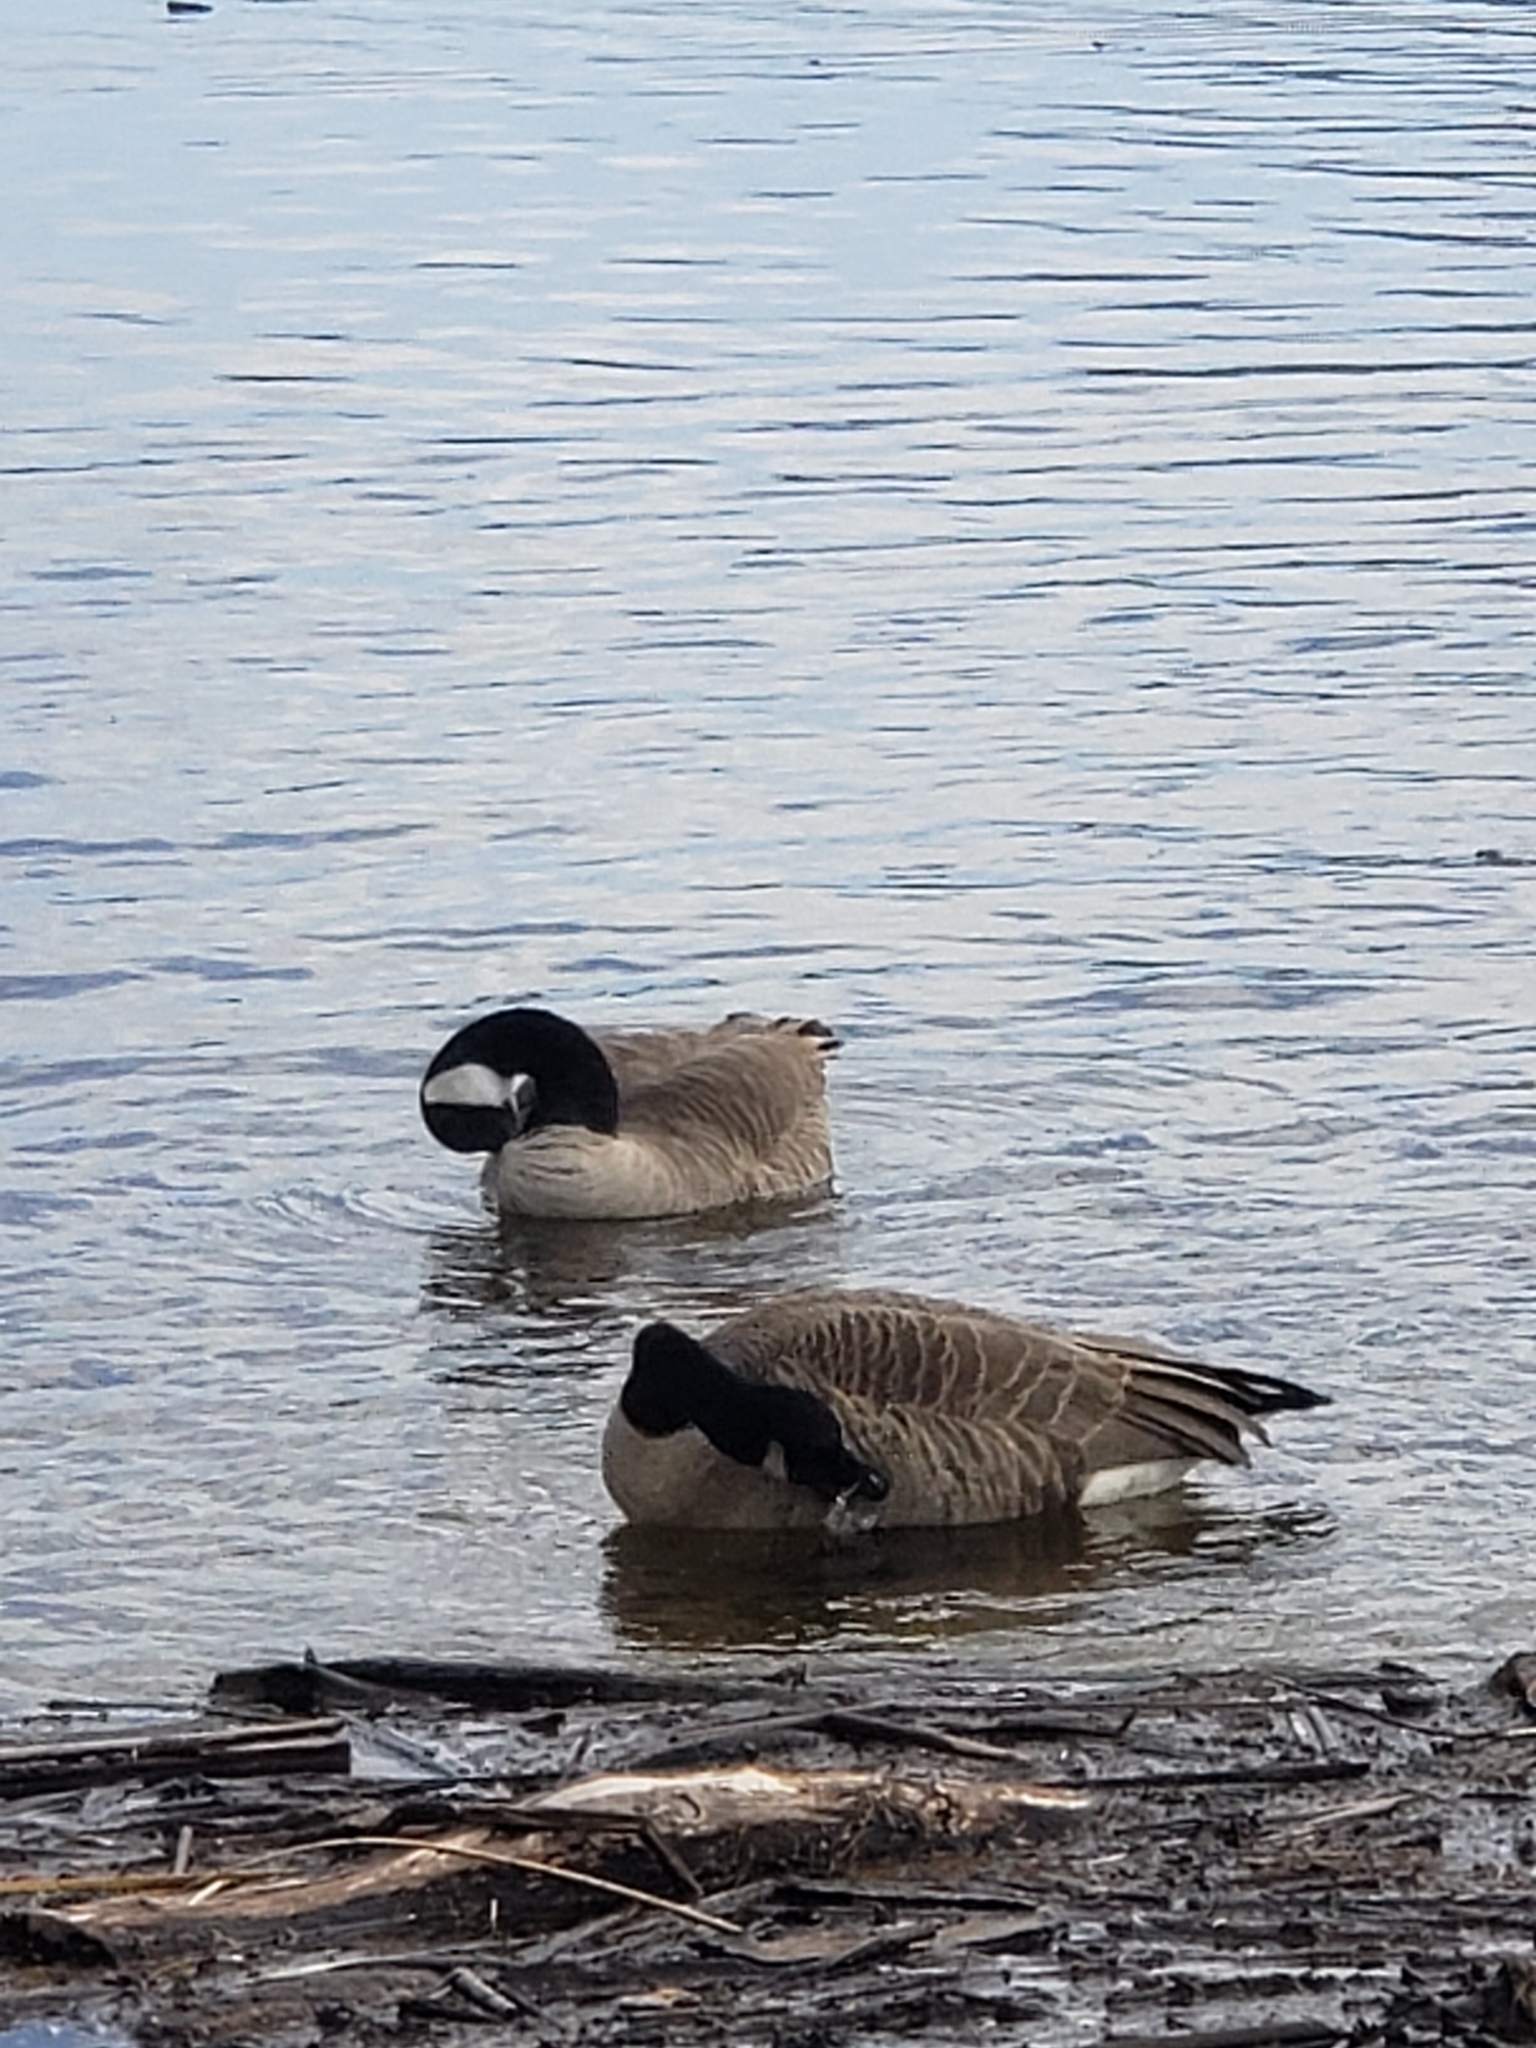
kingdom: Animalia
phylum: Chordata
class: Aves
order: Anseriformes
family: Anatidae
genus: Branta
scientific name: Branta canadensis
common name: Canada goose
